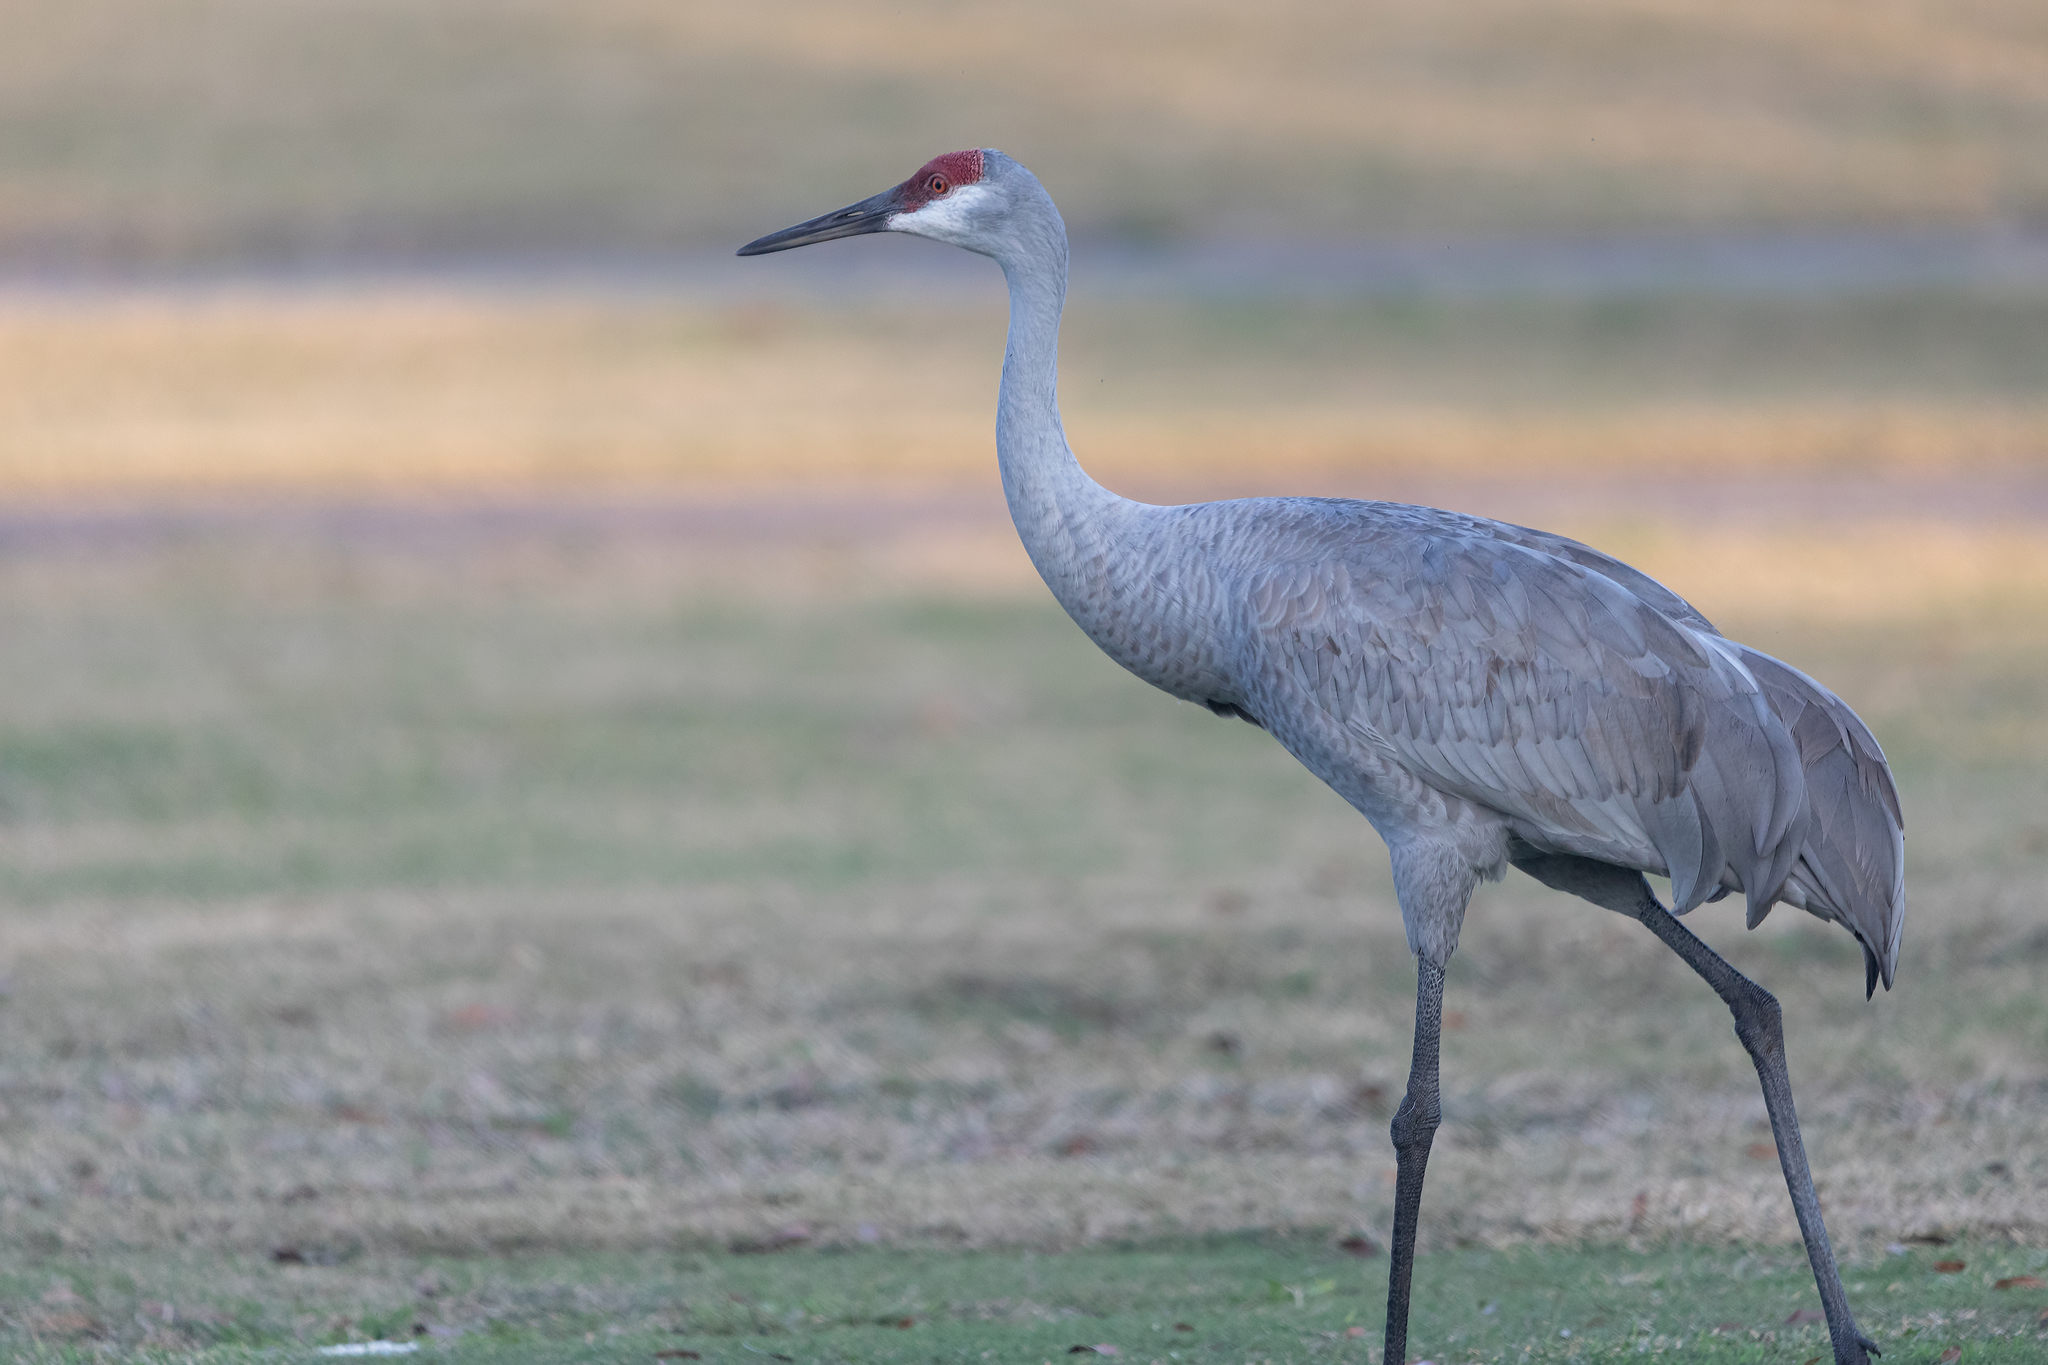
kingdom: Animalia
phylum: Chordata
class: Aves
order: Gruiformes
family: Gruidae
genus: Grus
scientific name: Grus canadensis
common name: Sandhill crane
